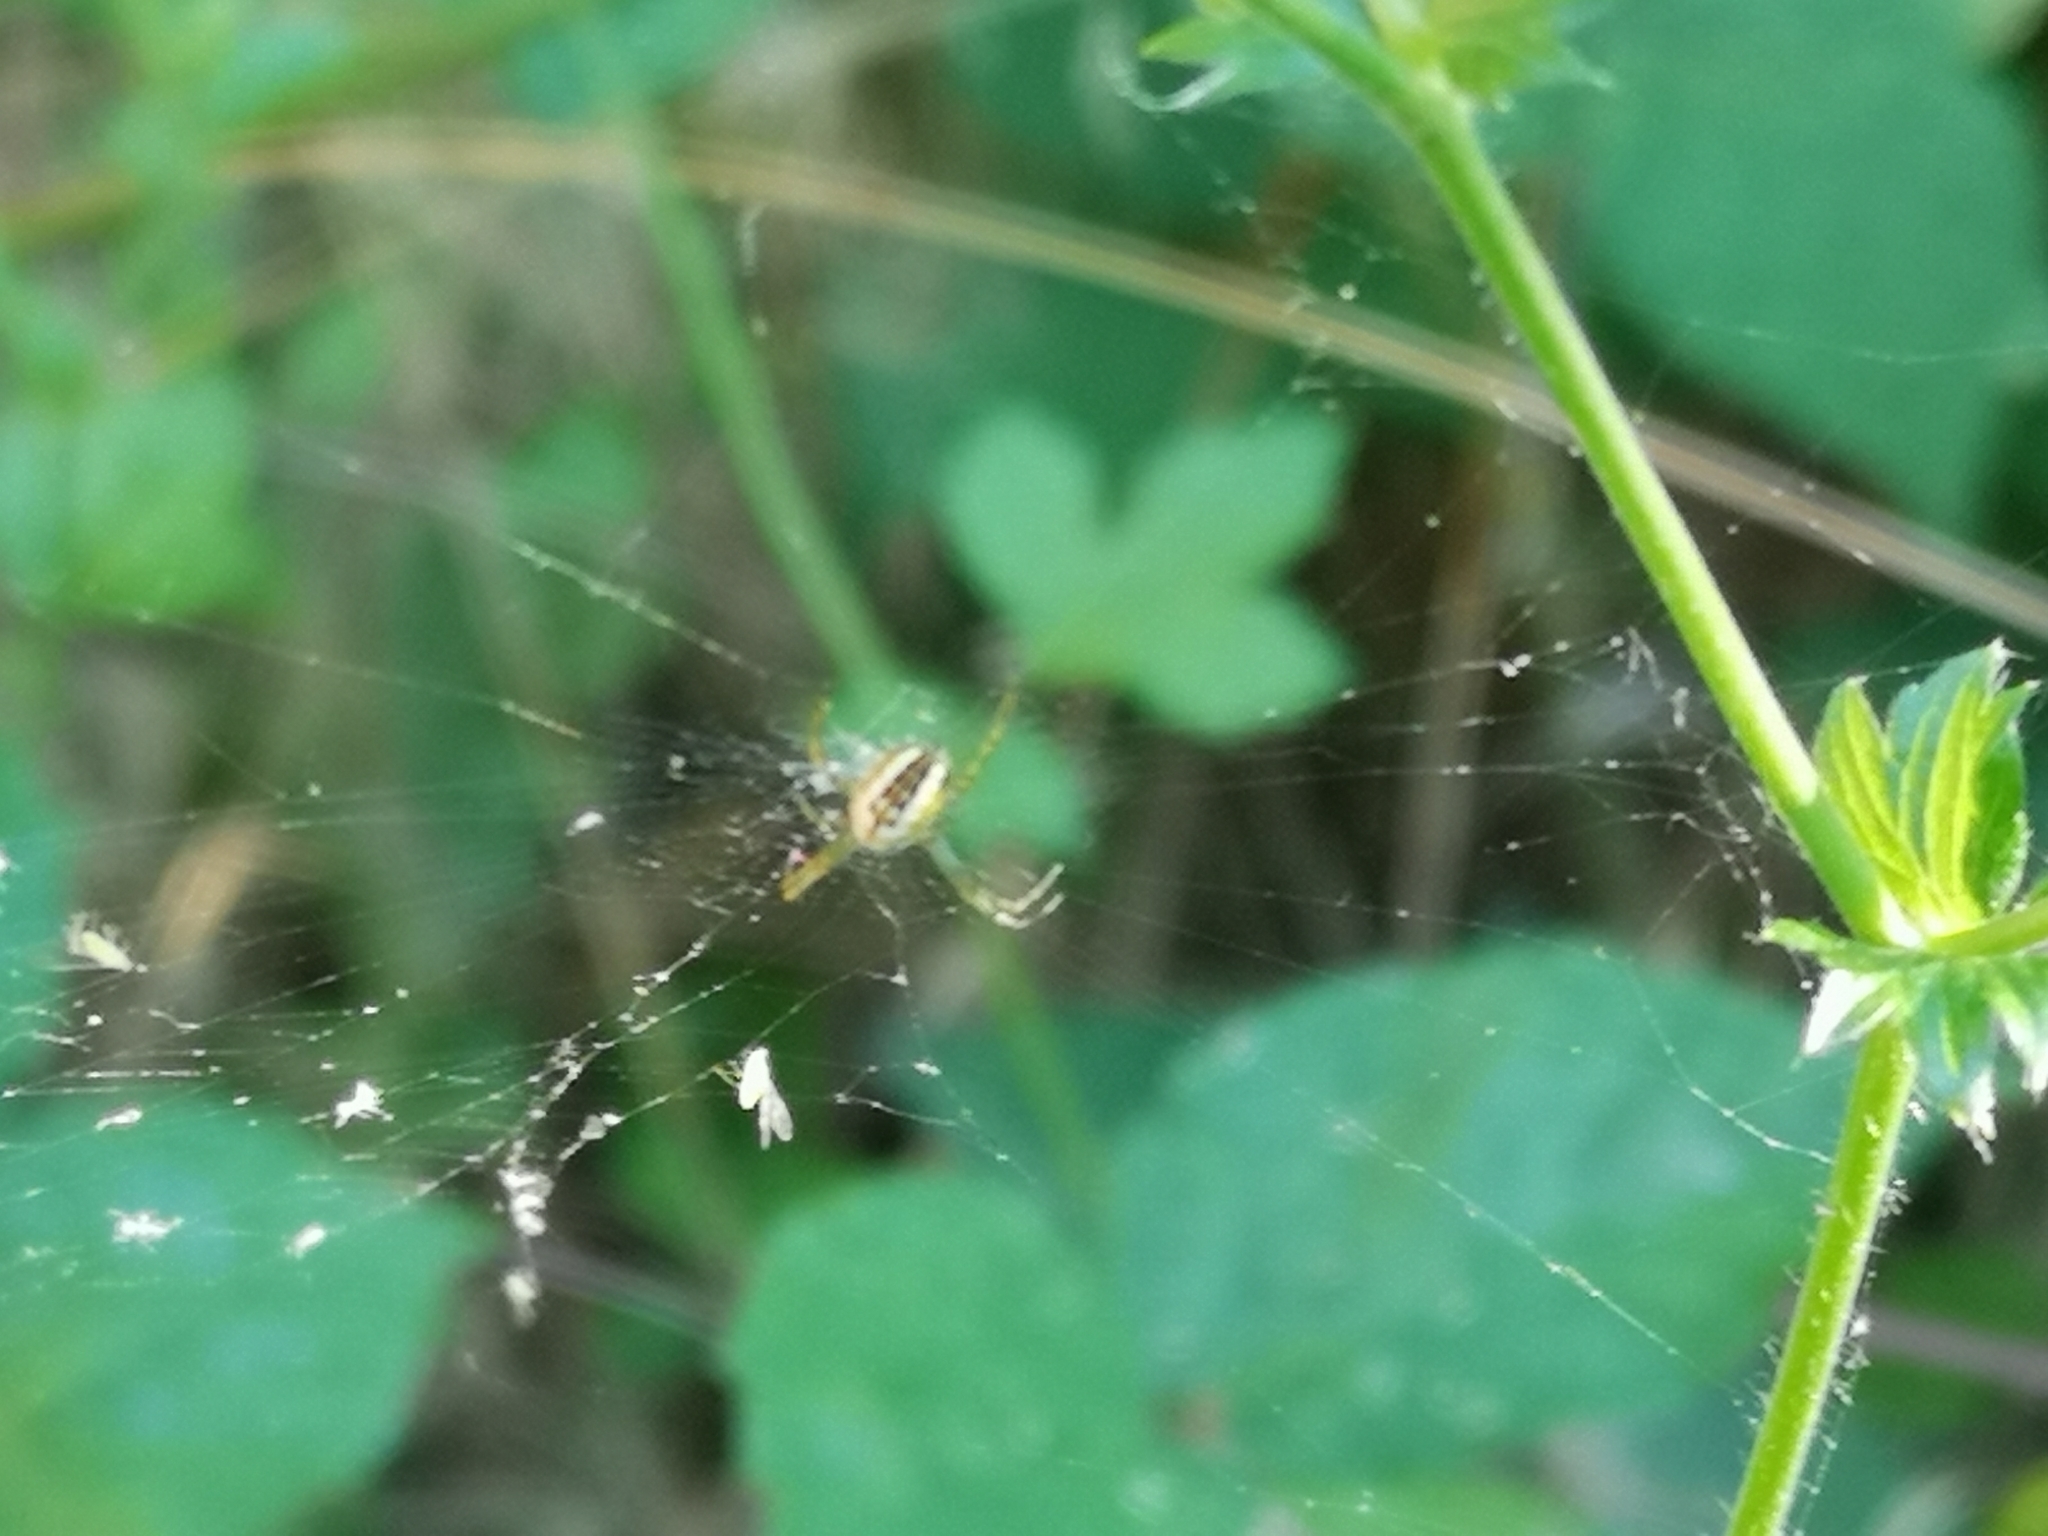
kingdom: Animalia
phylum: Arthropoda
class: Arachnida
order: Araneae
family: Araneidae
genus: Mangora
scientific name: Mangora acalypha
